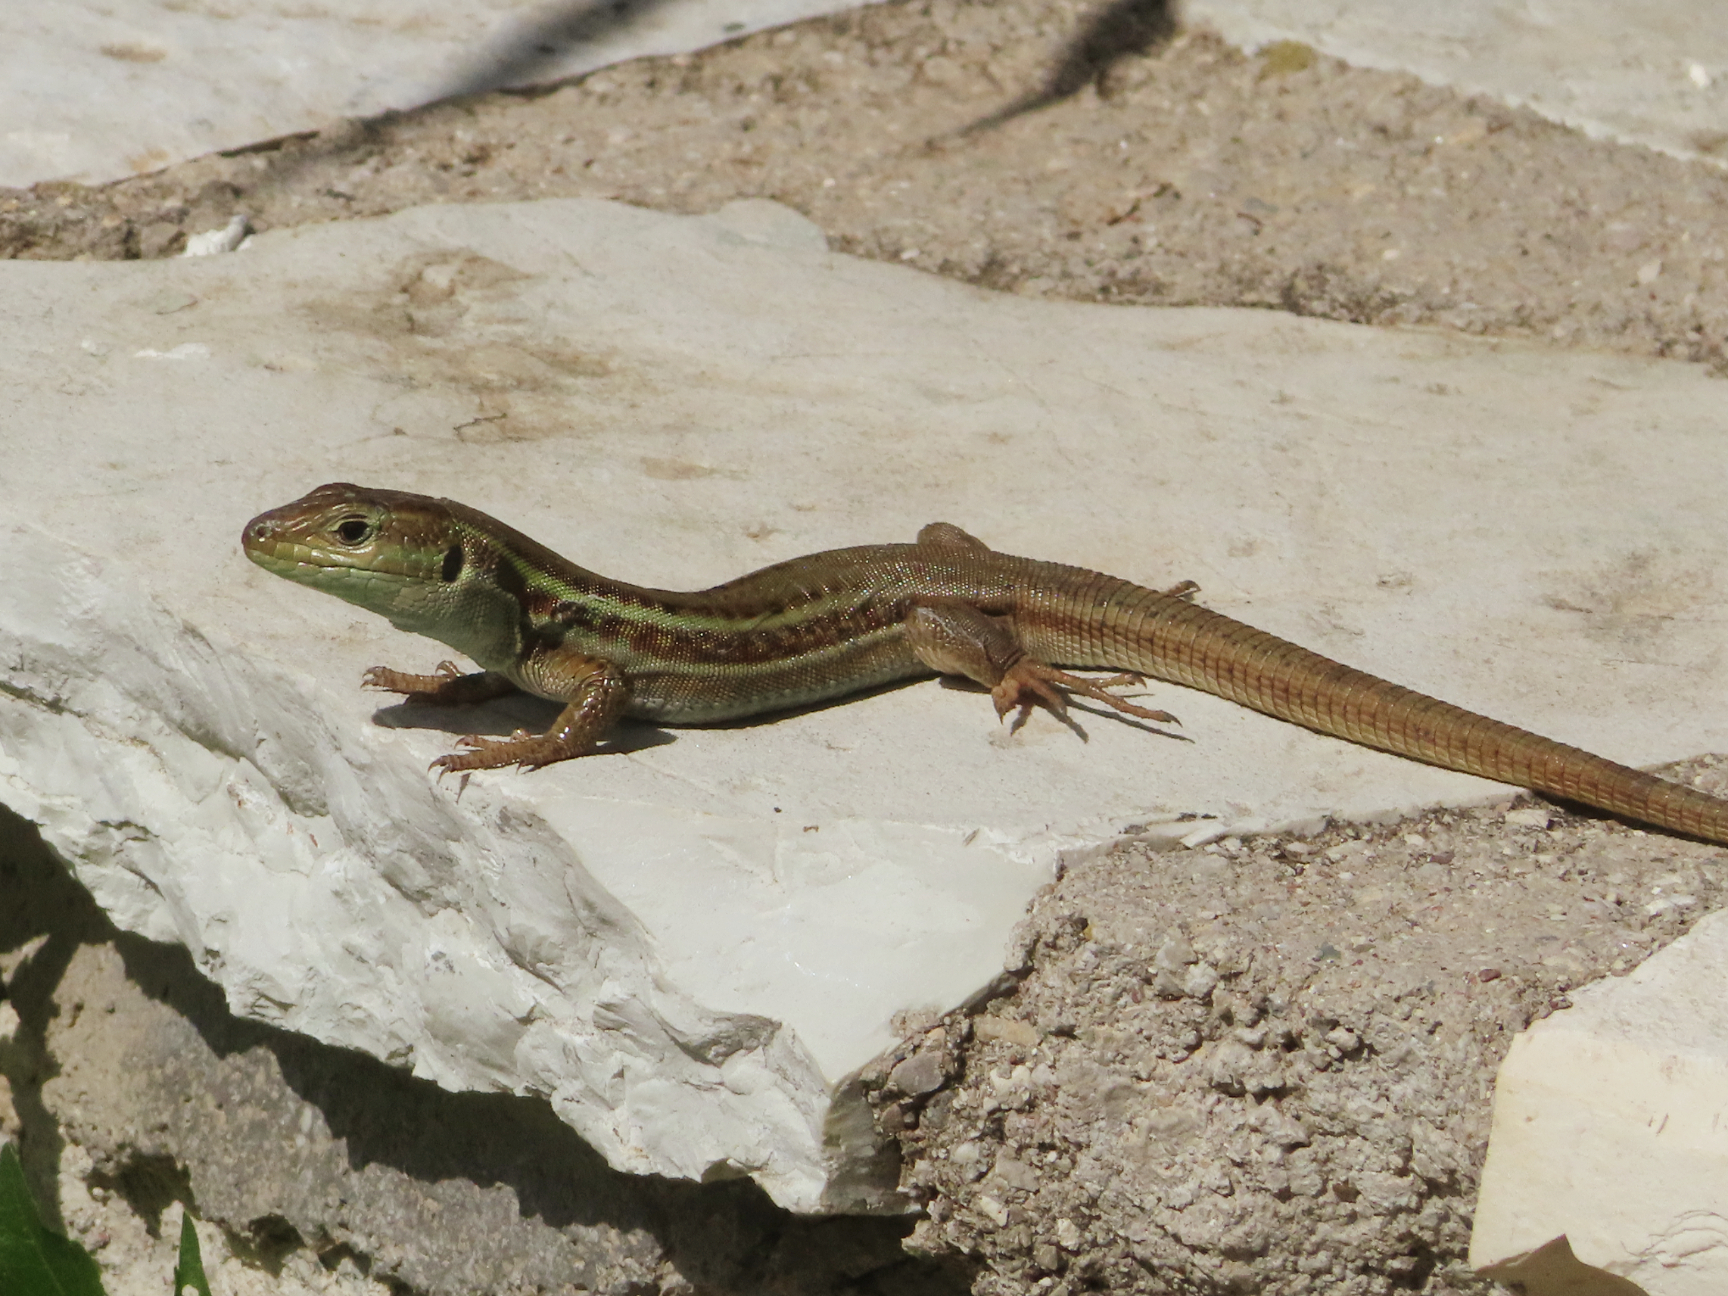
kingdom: Animalia
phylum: Chordata
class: Squamata
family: Lacertidae
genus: Podarcis
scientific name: Podarcis peloponnesiacus
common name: Peloponnese wall lizard
